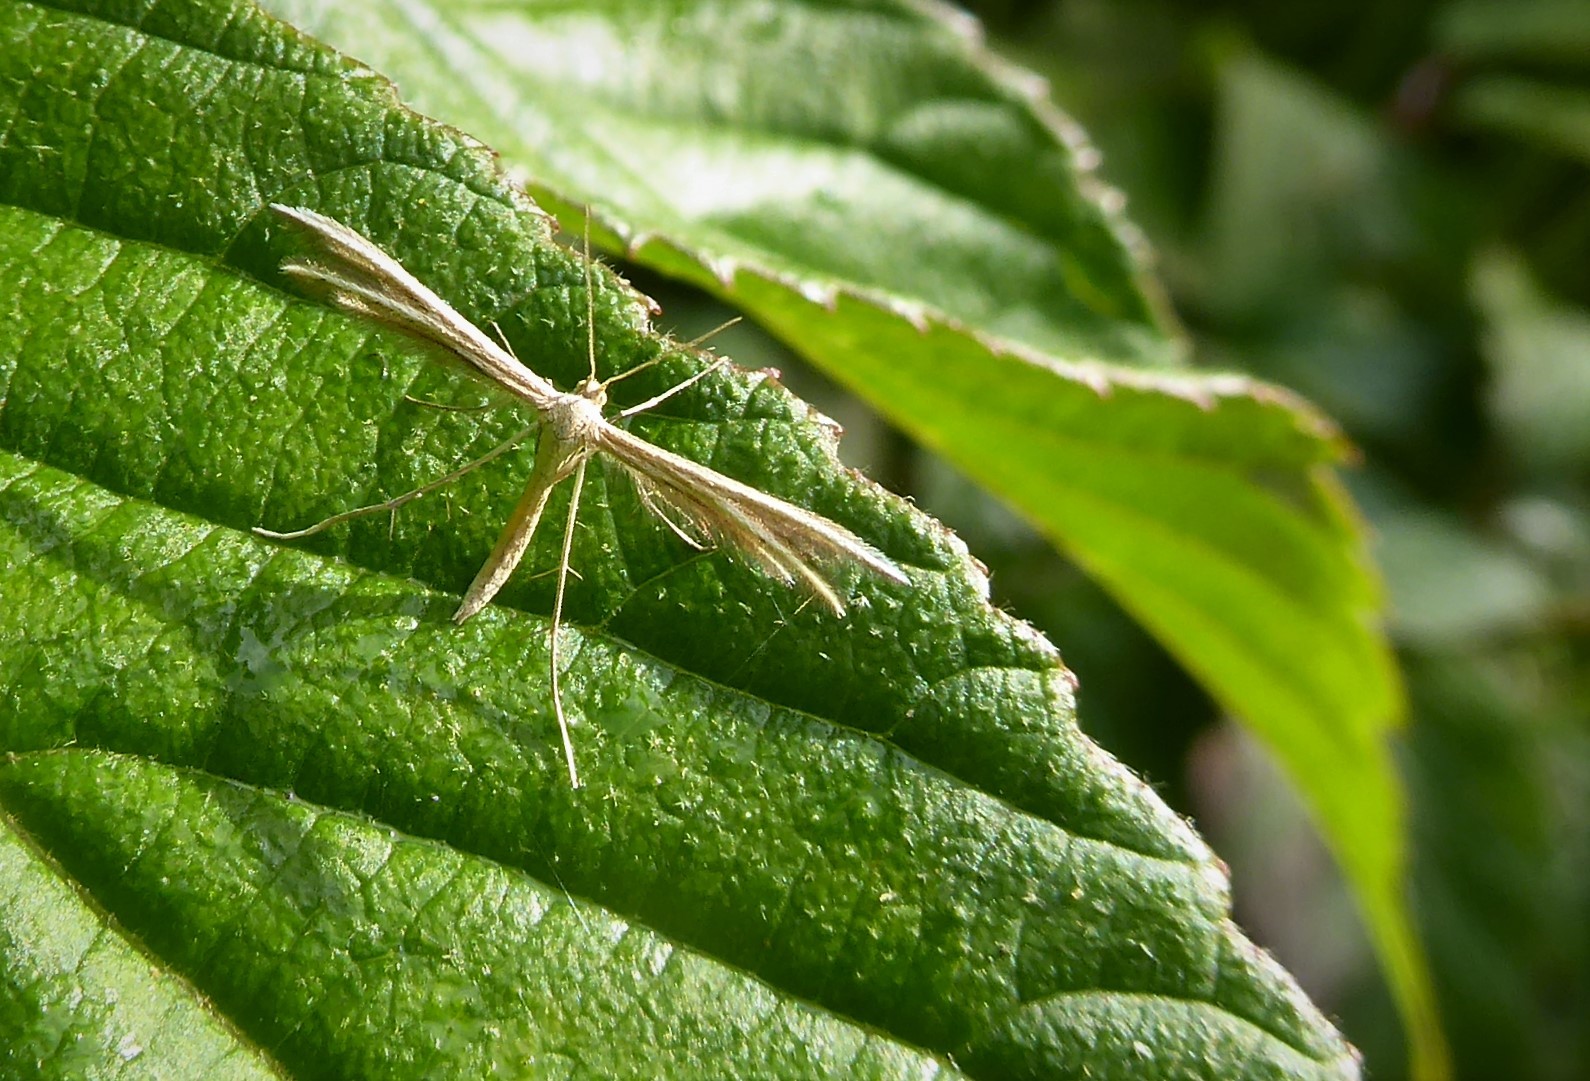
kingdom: Animalia
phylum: Arthropoda
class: Insecta
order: Lepidoptera
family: Pterophoridae
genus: Pterophorus
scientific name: Pterophorus innotatalis
